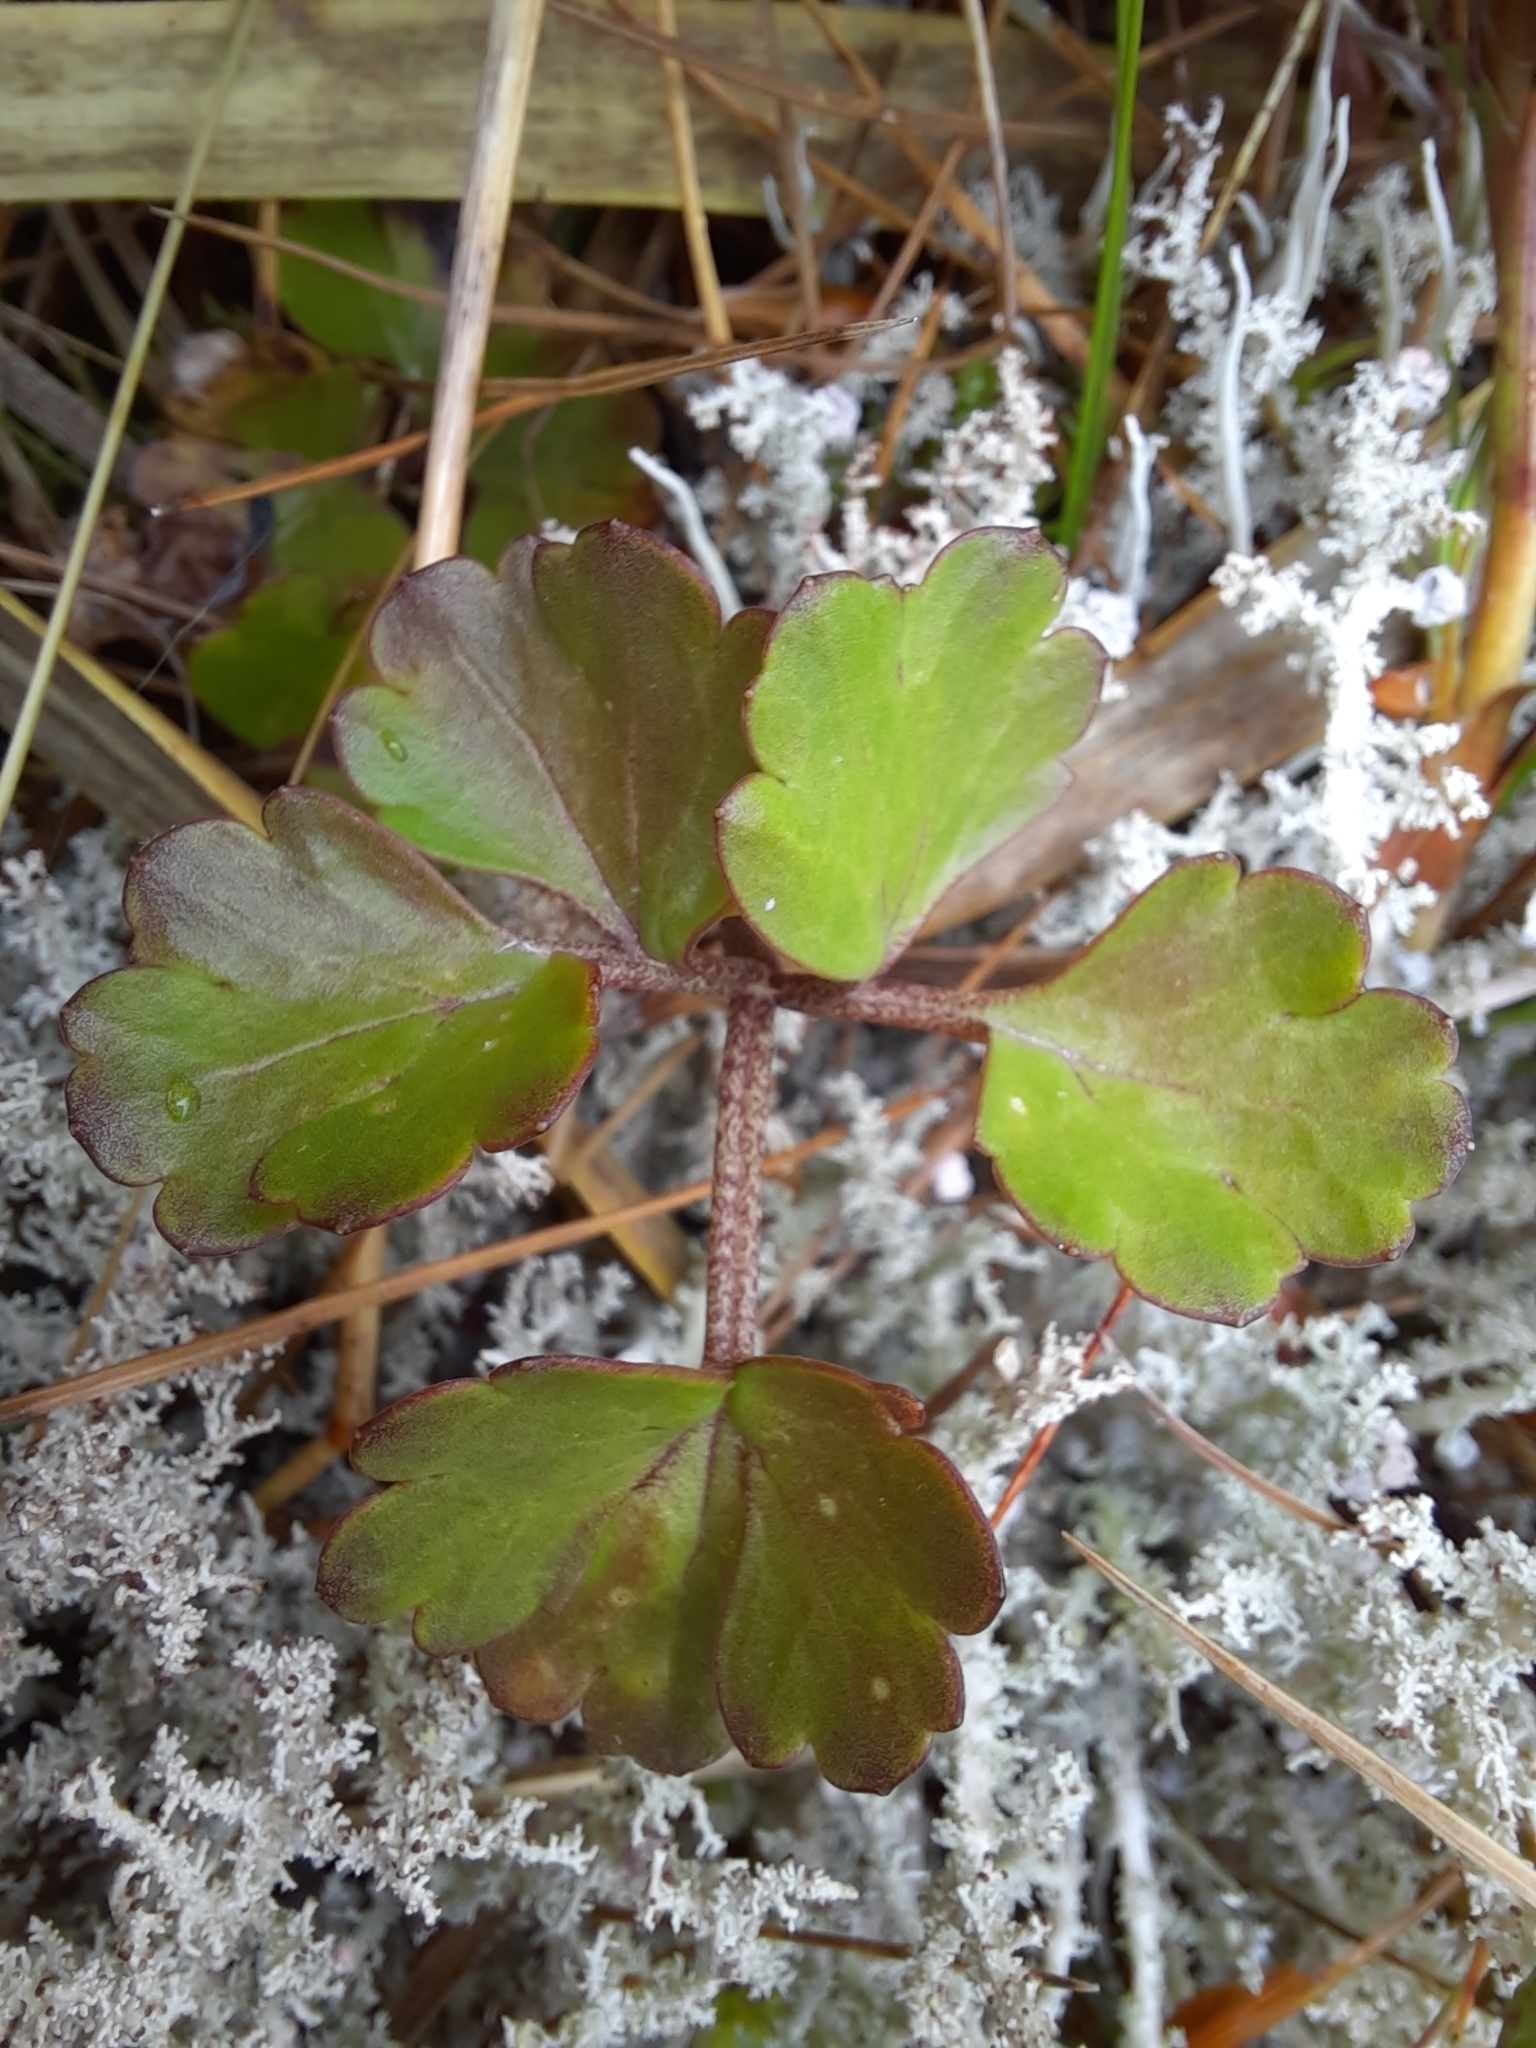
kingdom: Plantae
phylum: Tracheophyta
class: Magnoliopsida
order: Ranunculales
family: Ranunculaceae
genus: Ranunculus
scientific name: Ranunculus enysii
